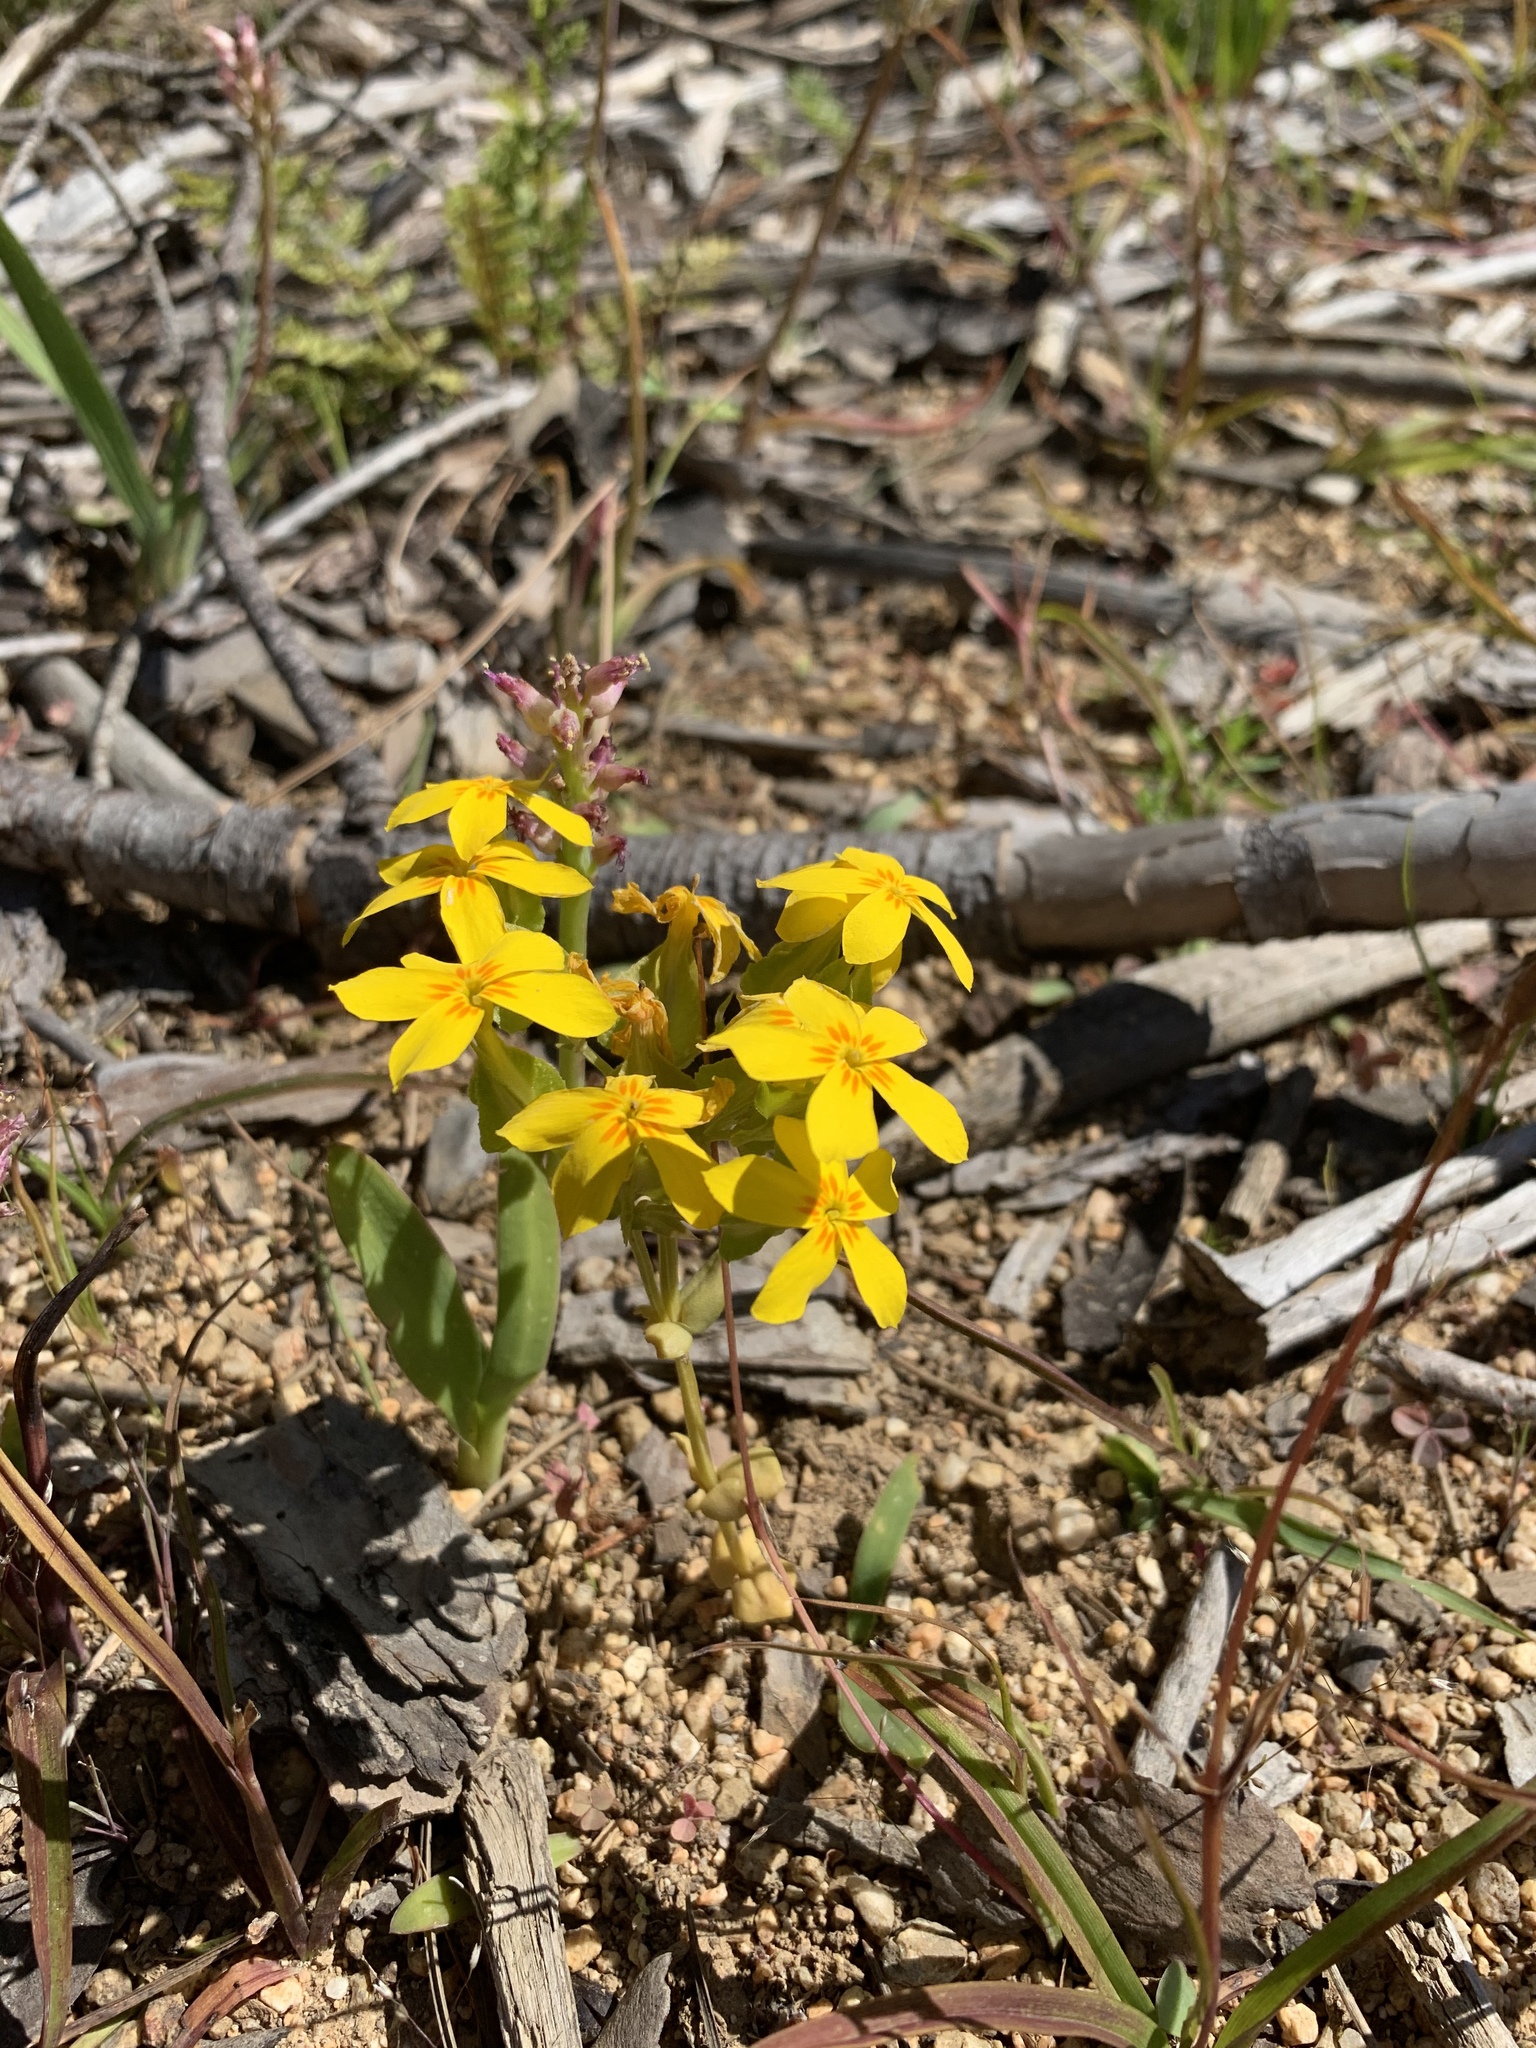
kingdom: Plantae
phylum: Tracheophyta
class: Magnoliopsida
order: Gentianales
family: Gentianaceae
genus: Sebaea
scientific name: Sebaea exacoides
